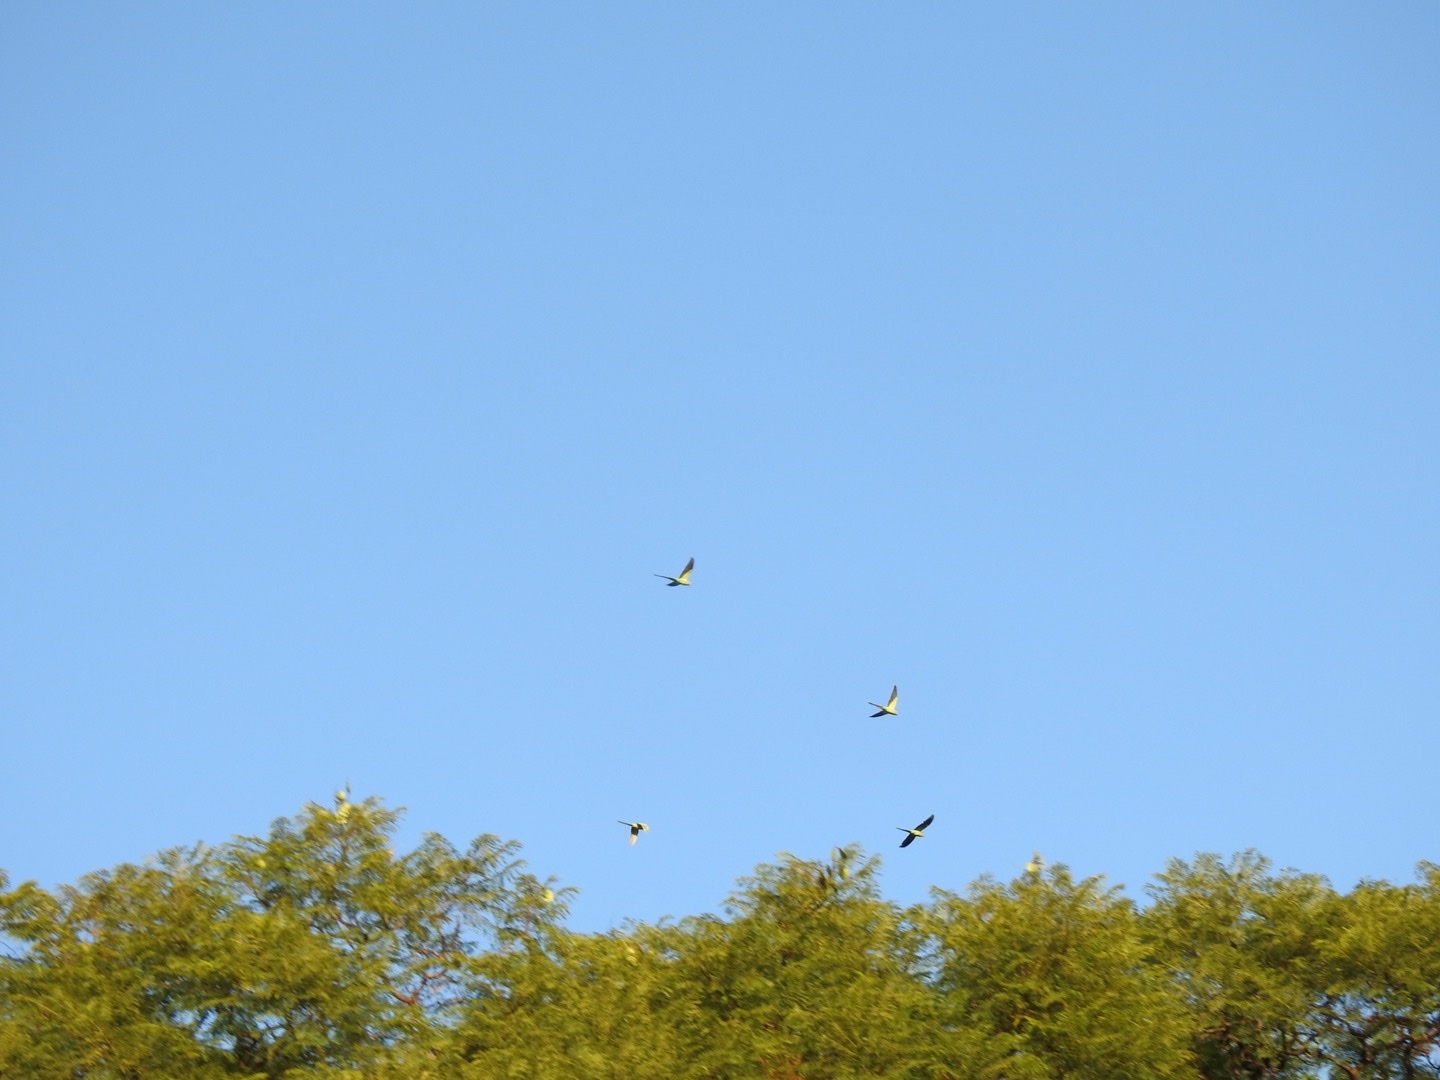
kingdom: Animalia
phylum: Chordata
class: Aves
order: Psittaciformes
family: Psittacidae
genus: Psittacula
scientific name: Psittacula krameri
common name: Rose-ringed parakeet
